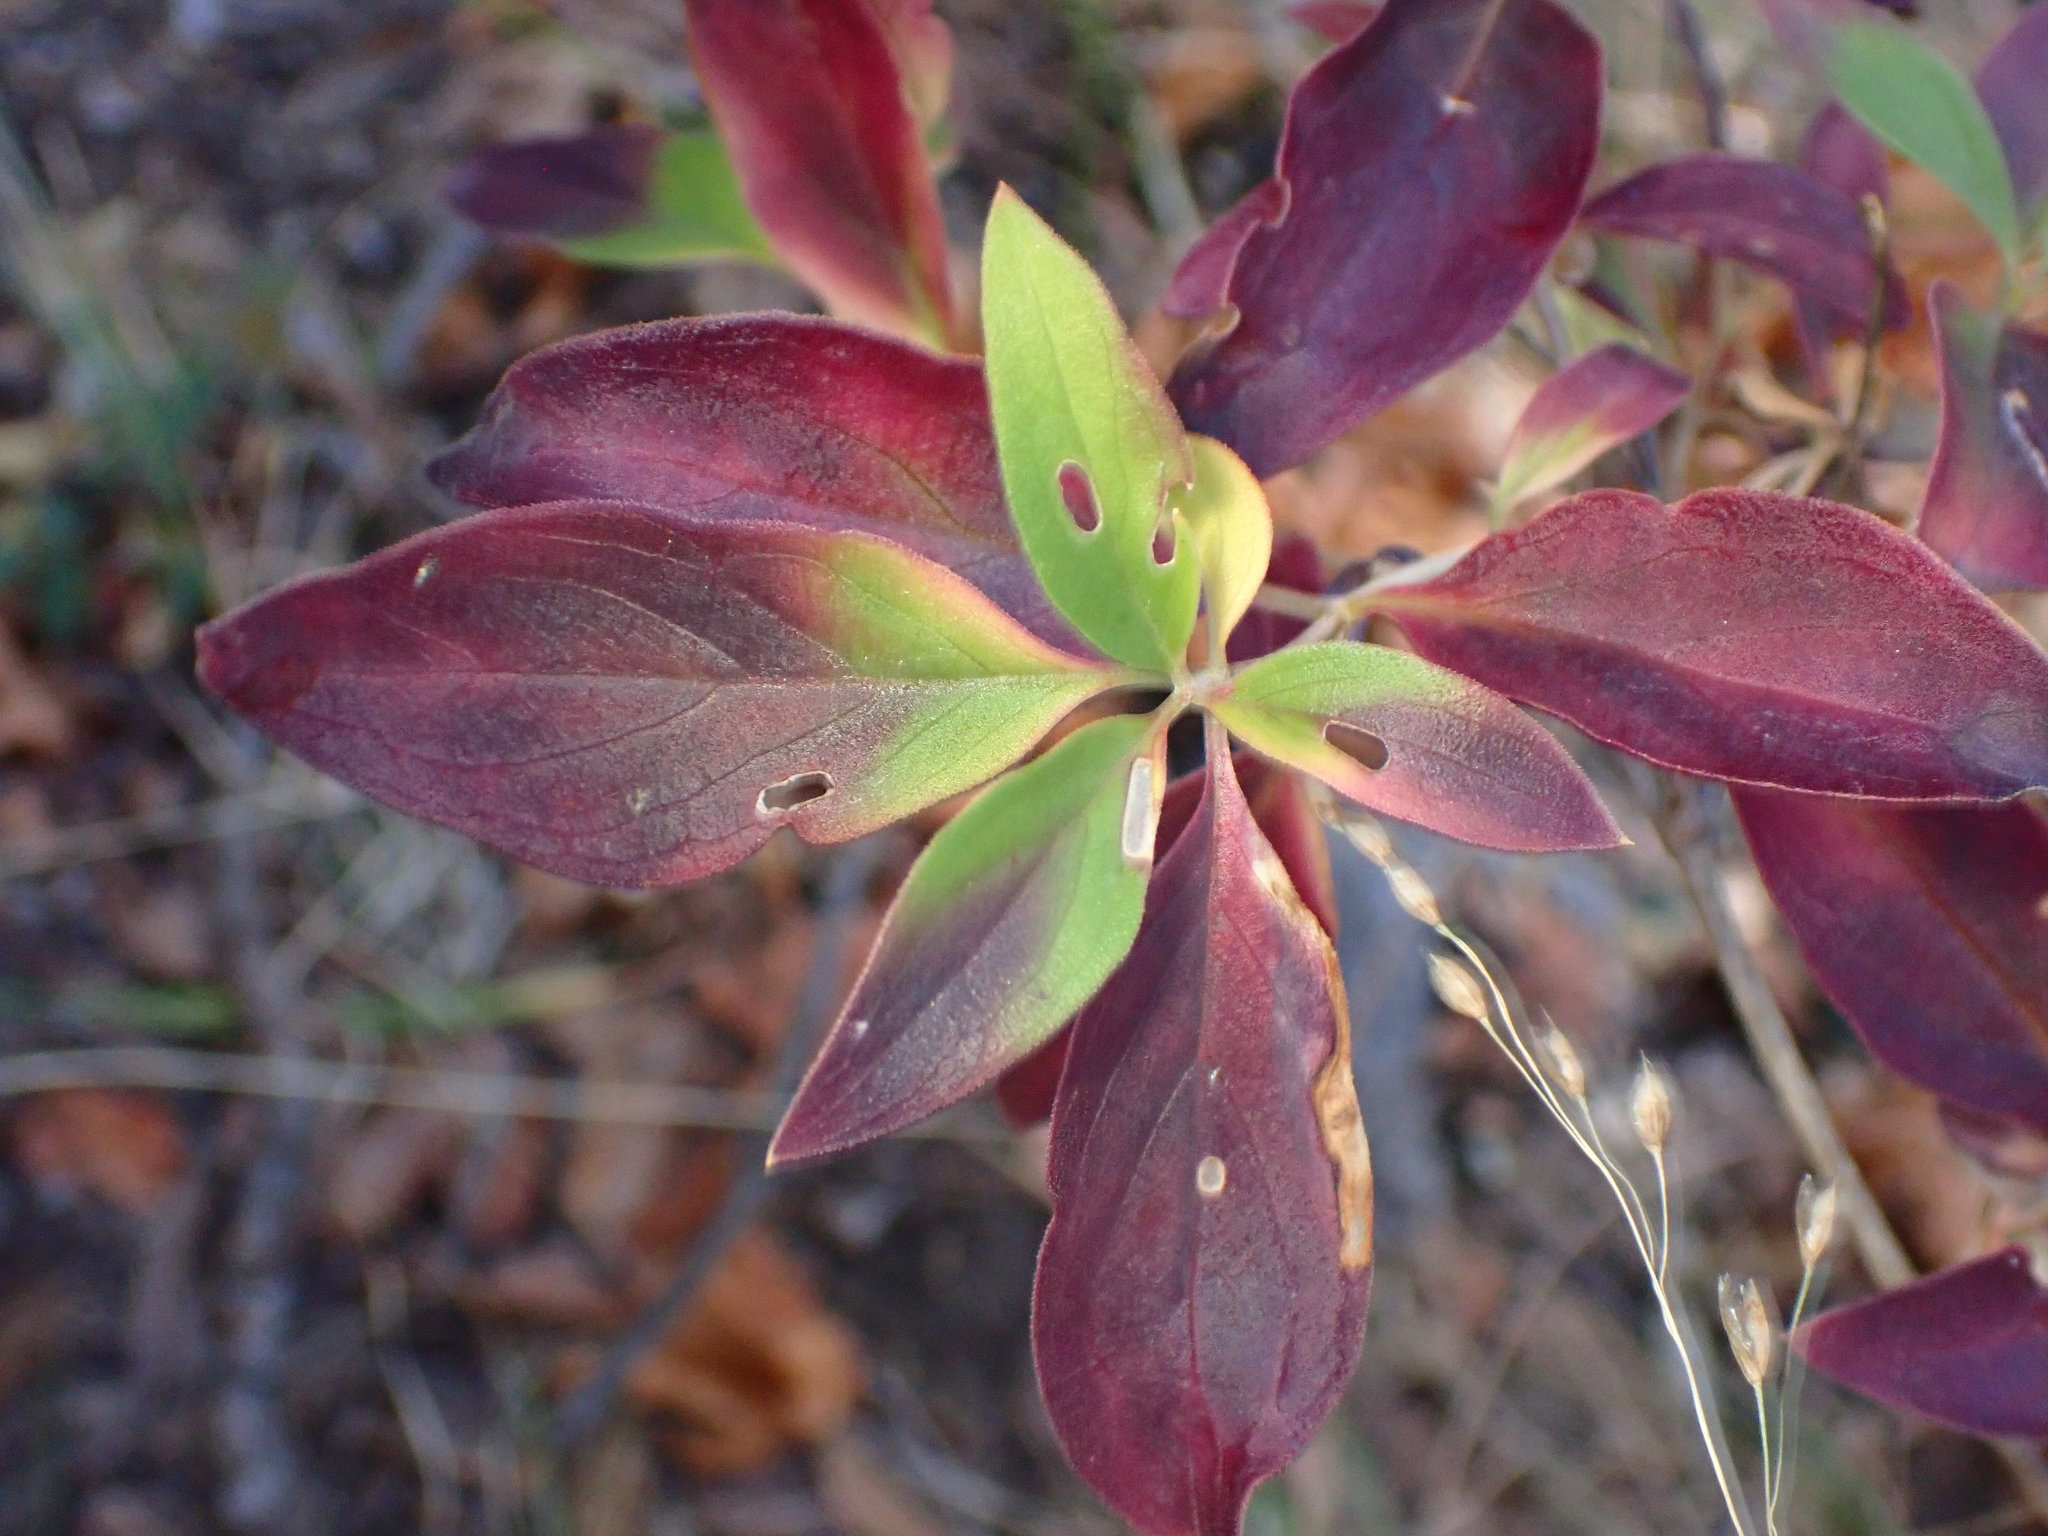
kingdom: Plantae
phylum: Tracheophyta
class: Magnoliopsida
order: Gentianales
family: Rubiaceae
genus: Bouvardia
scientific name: Bouvardia ternifolia
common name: Scarlet bouvardia
